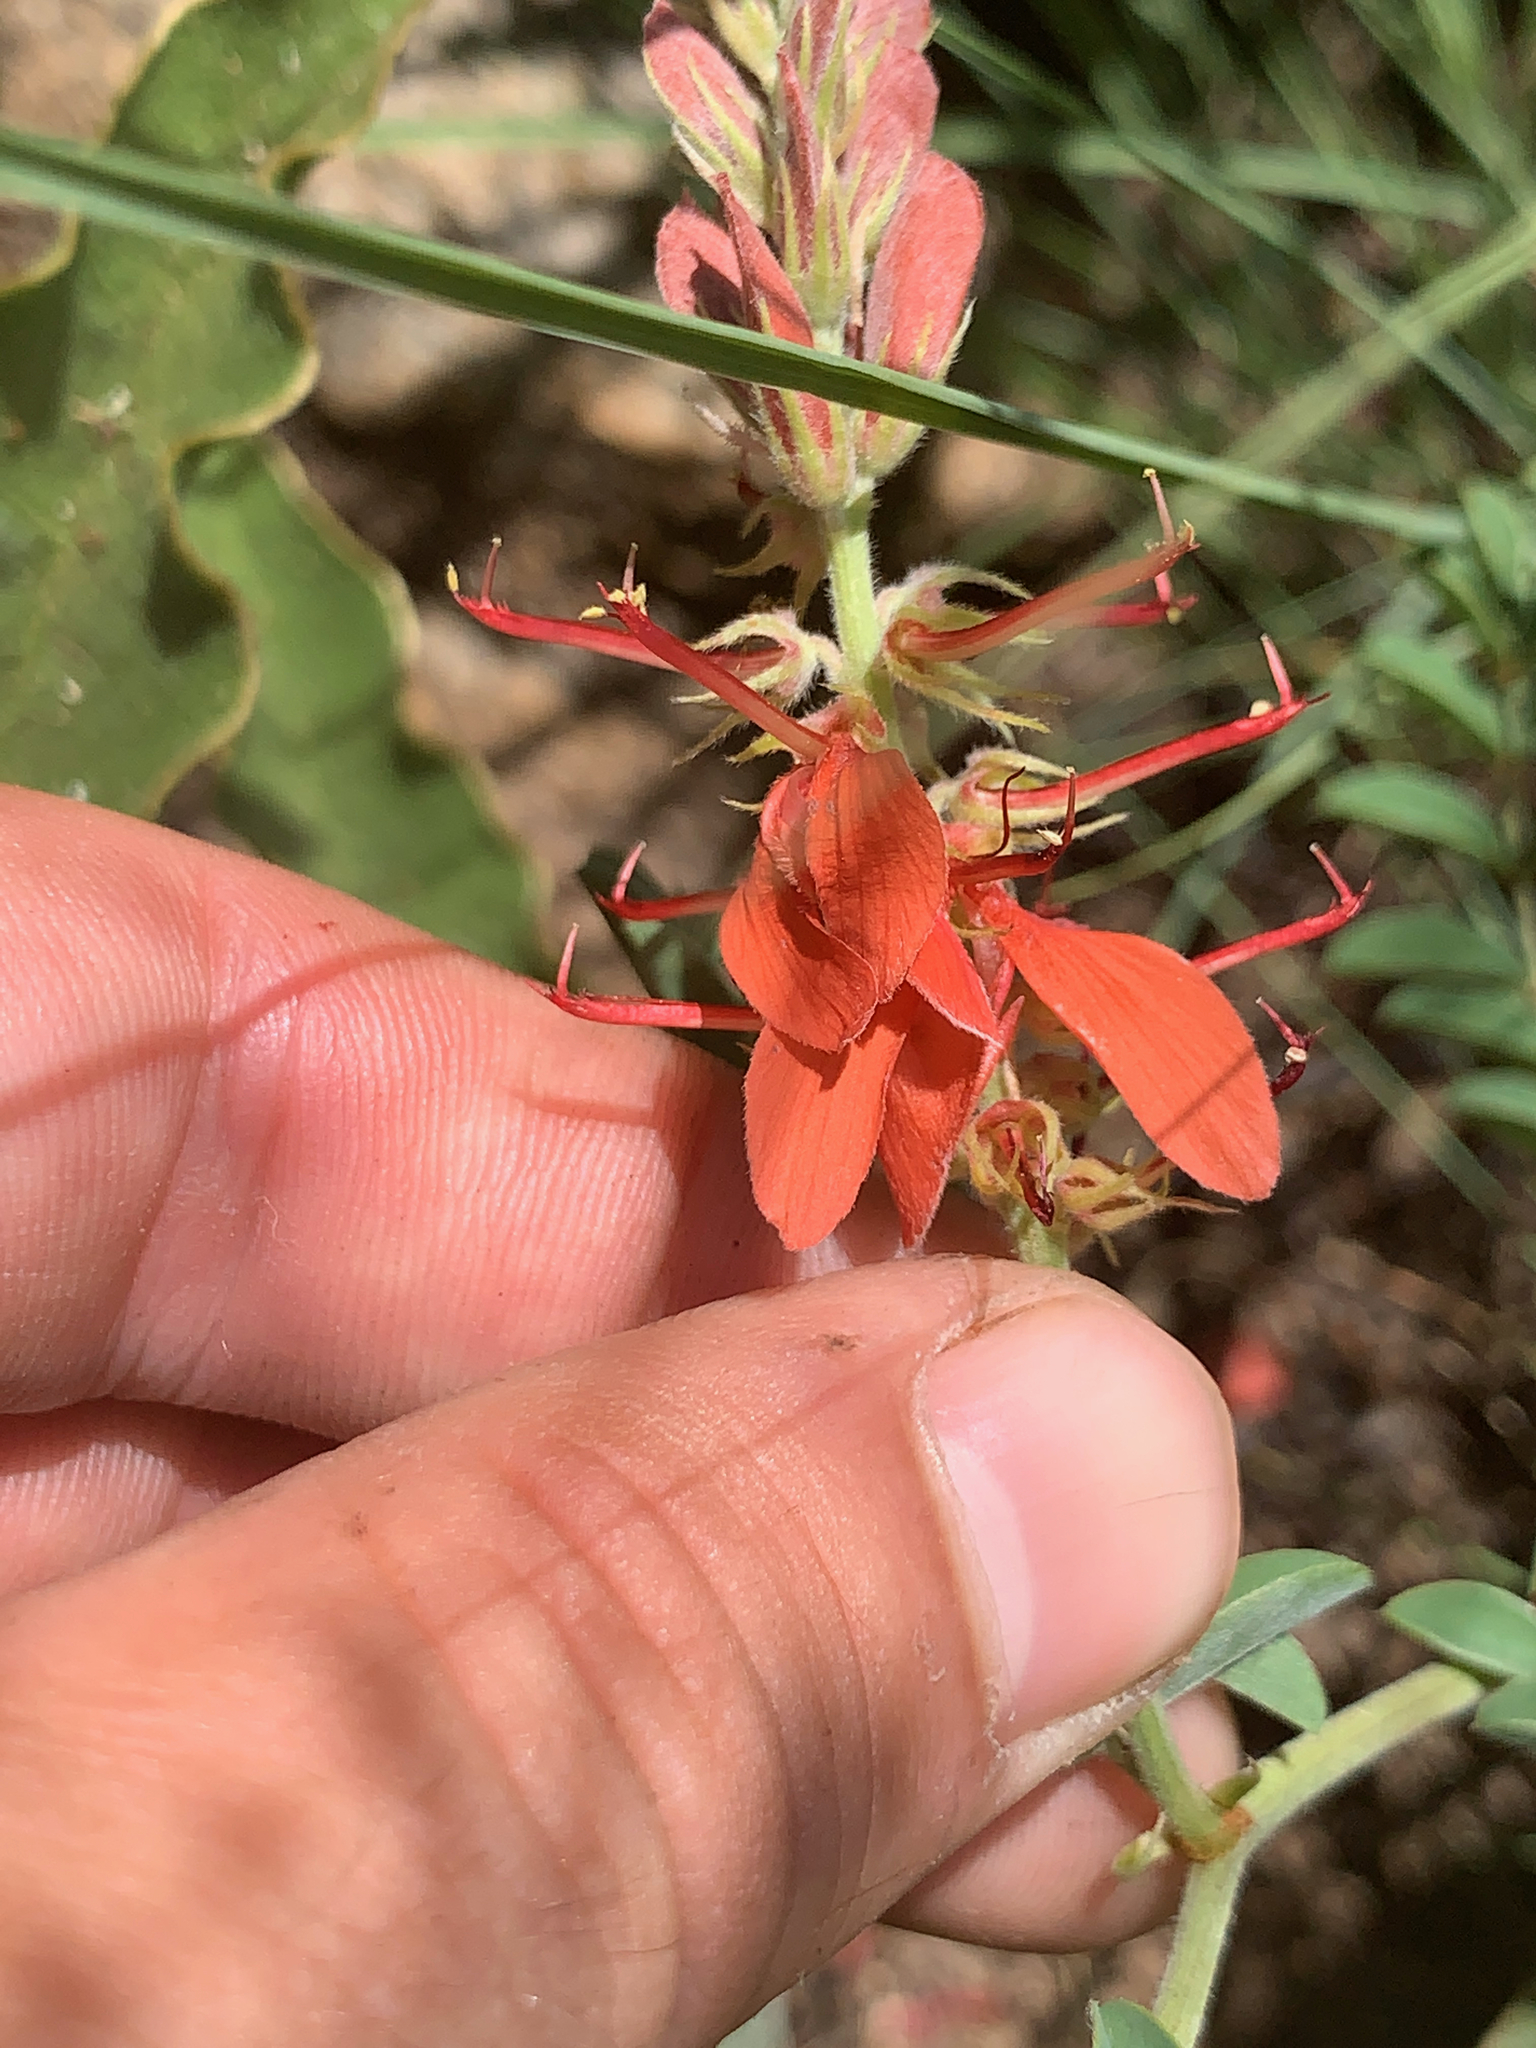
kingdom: Plantae
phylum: Tracheophyta
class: Magnoliopsida
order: Fabales
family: Fabaceae
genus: Indigofera
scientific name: Indigofera oxytropis
